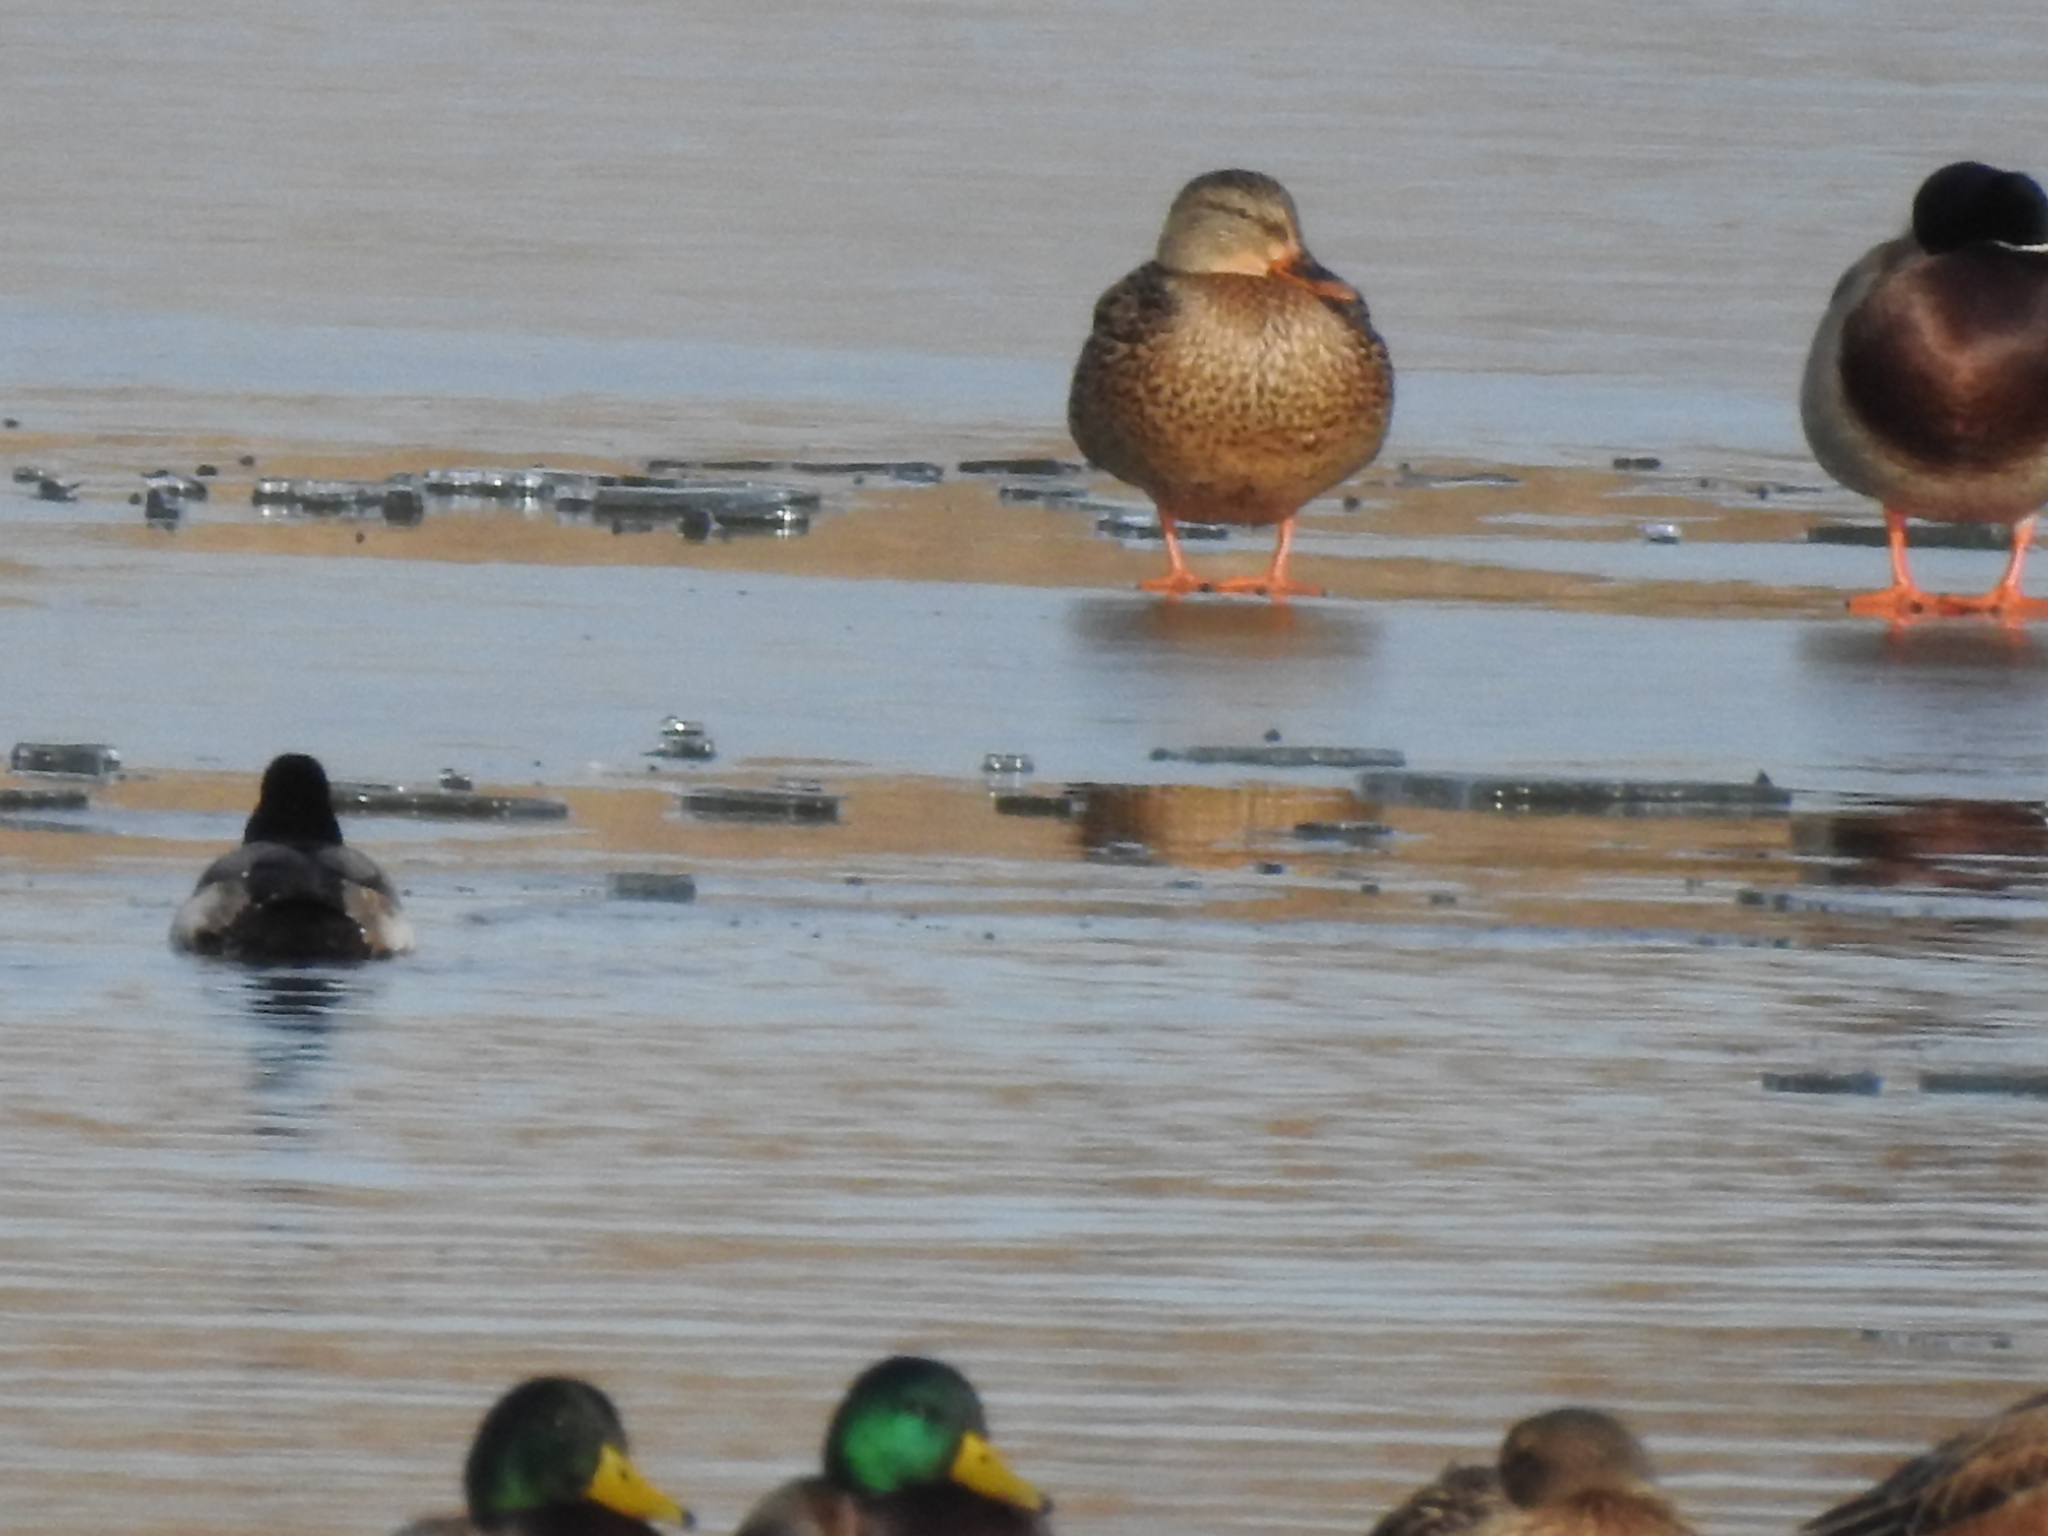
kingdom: Animalia
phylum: Chordata
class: Aves
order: Anseriformes
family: Anatidae
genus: Anas
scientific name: Anas platyrhynchos
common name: Mallard
